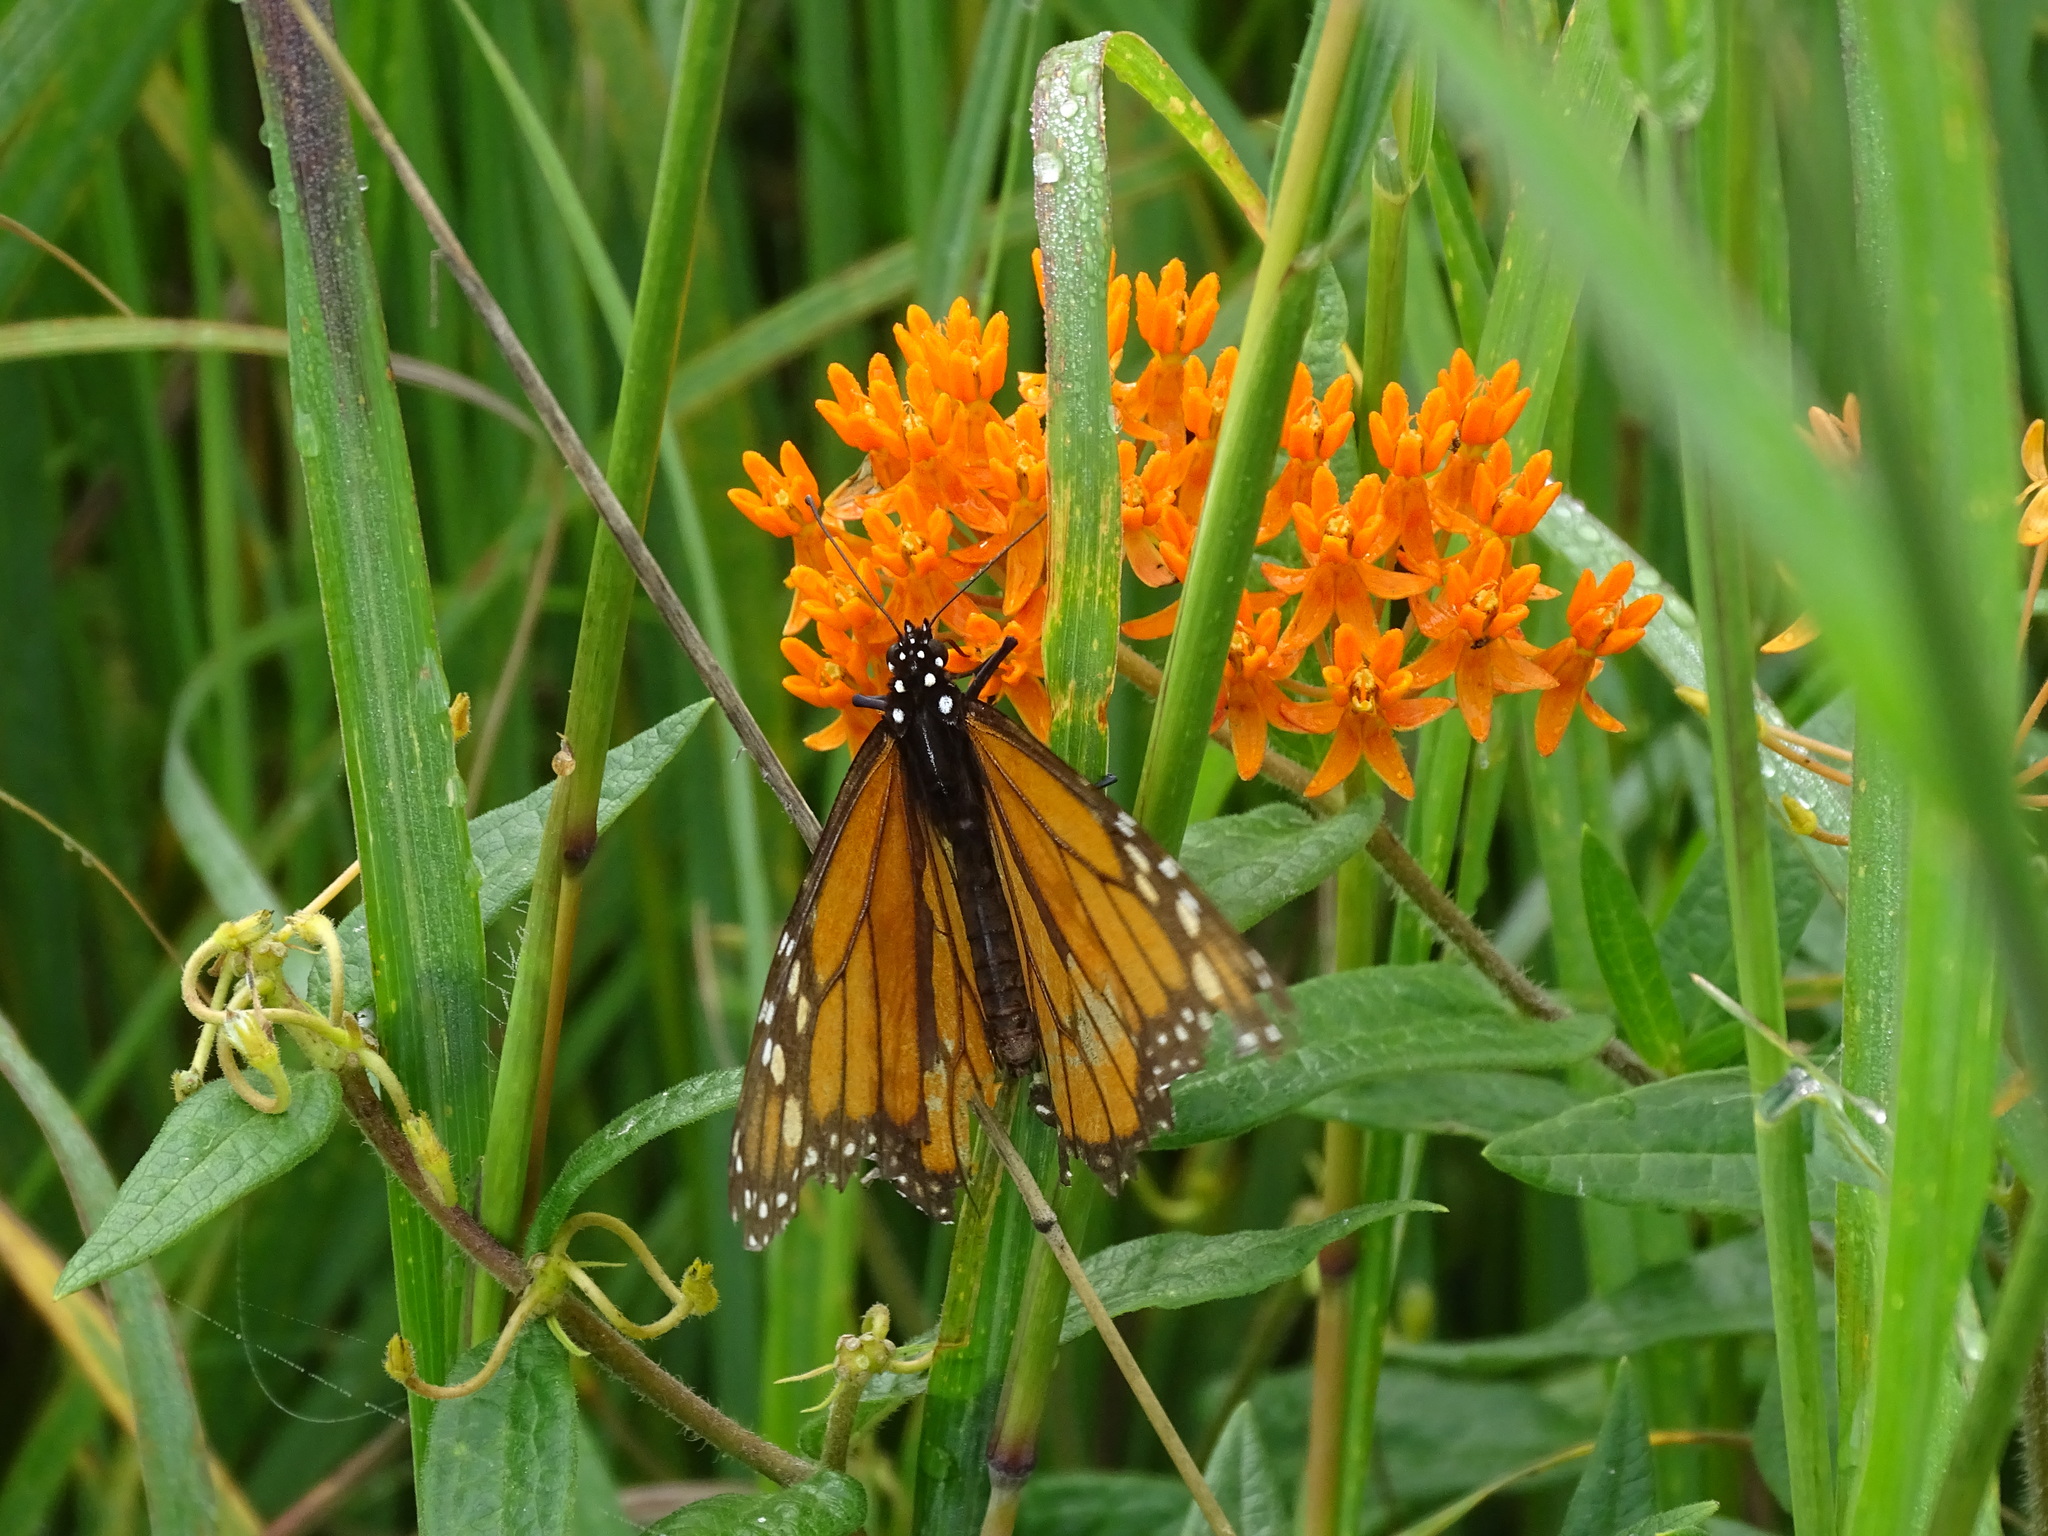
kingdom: Animalia
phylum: Arthropoda
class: Insecta
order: Lepidoptera
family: Nymphalidae
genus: Danaus
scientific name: Danaus plexippus
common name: Monarch
